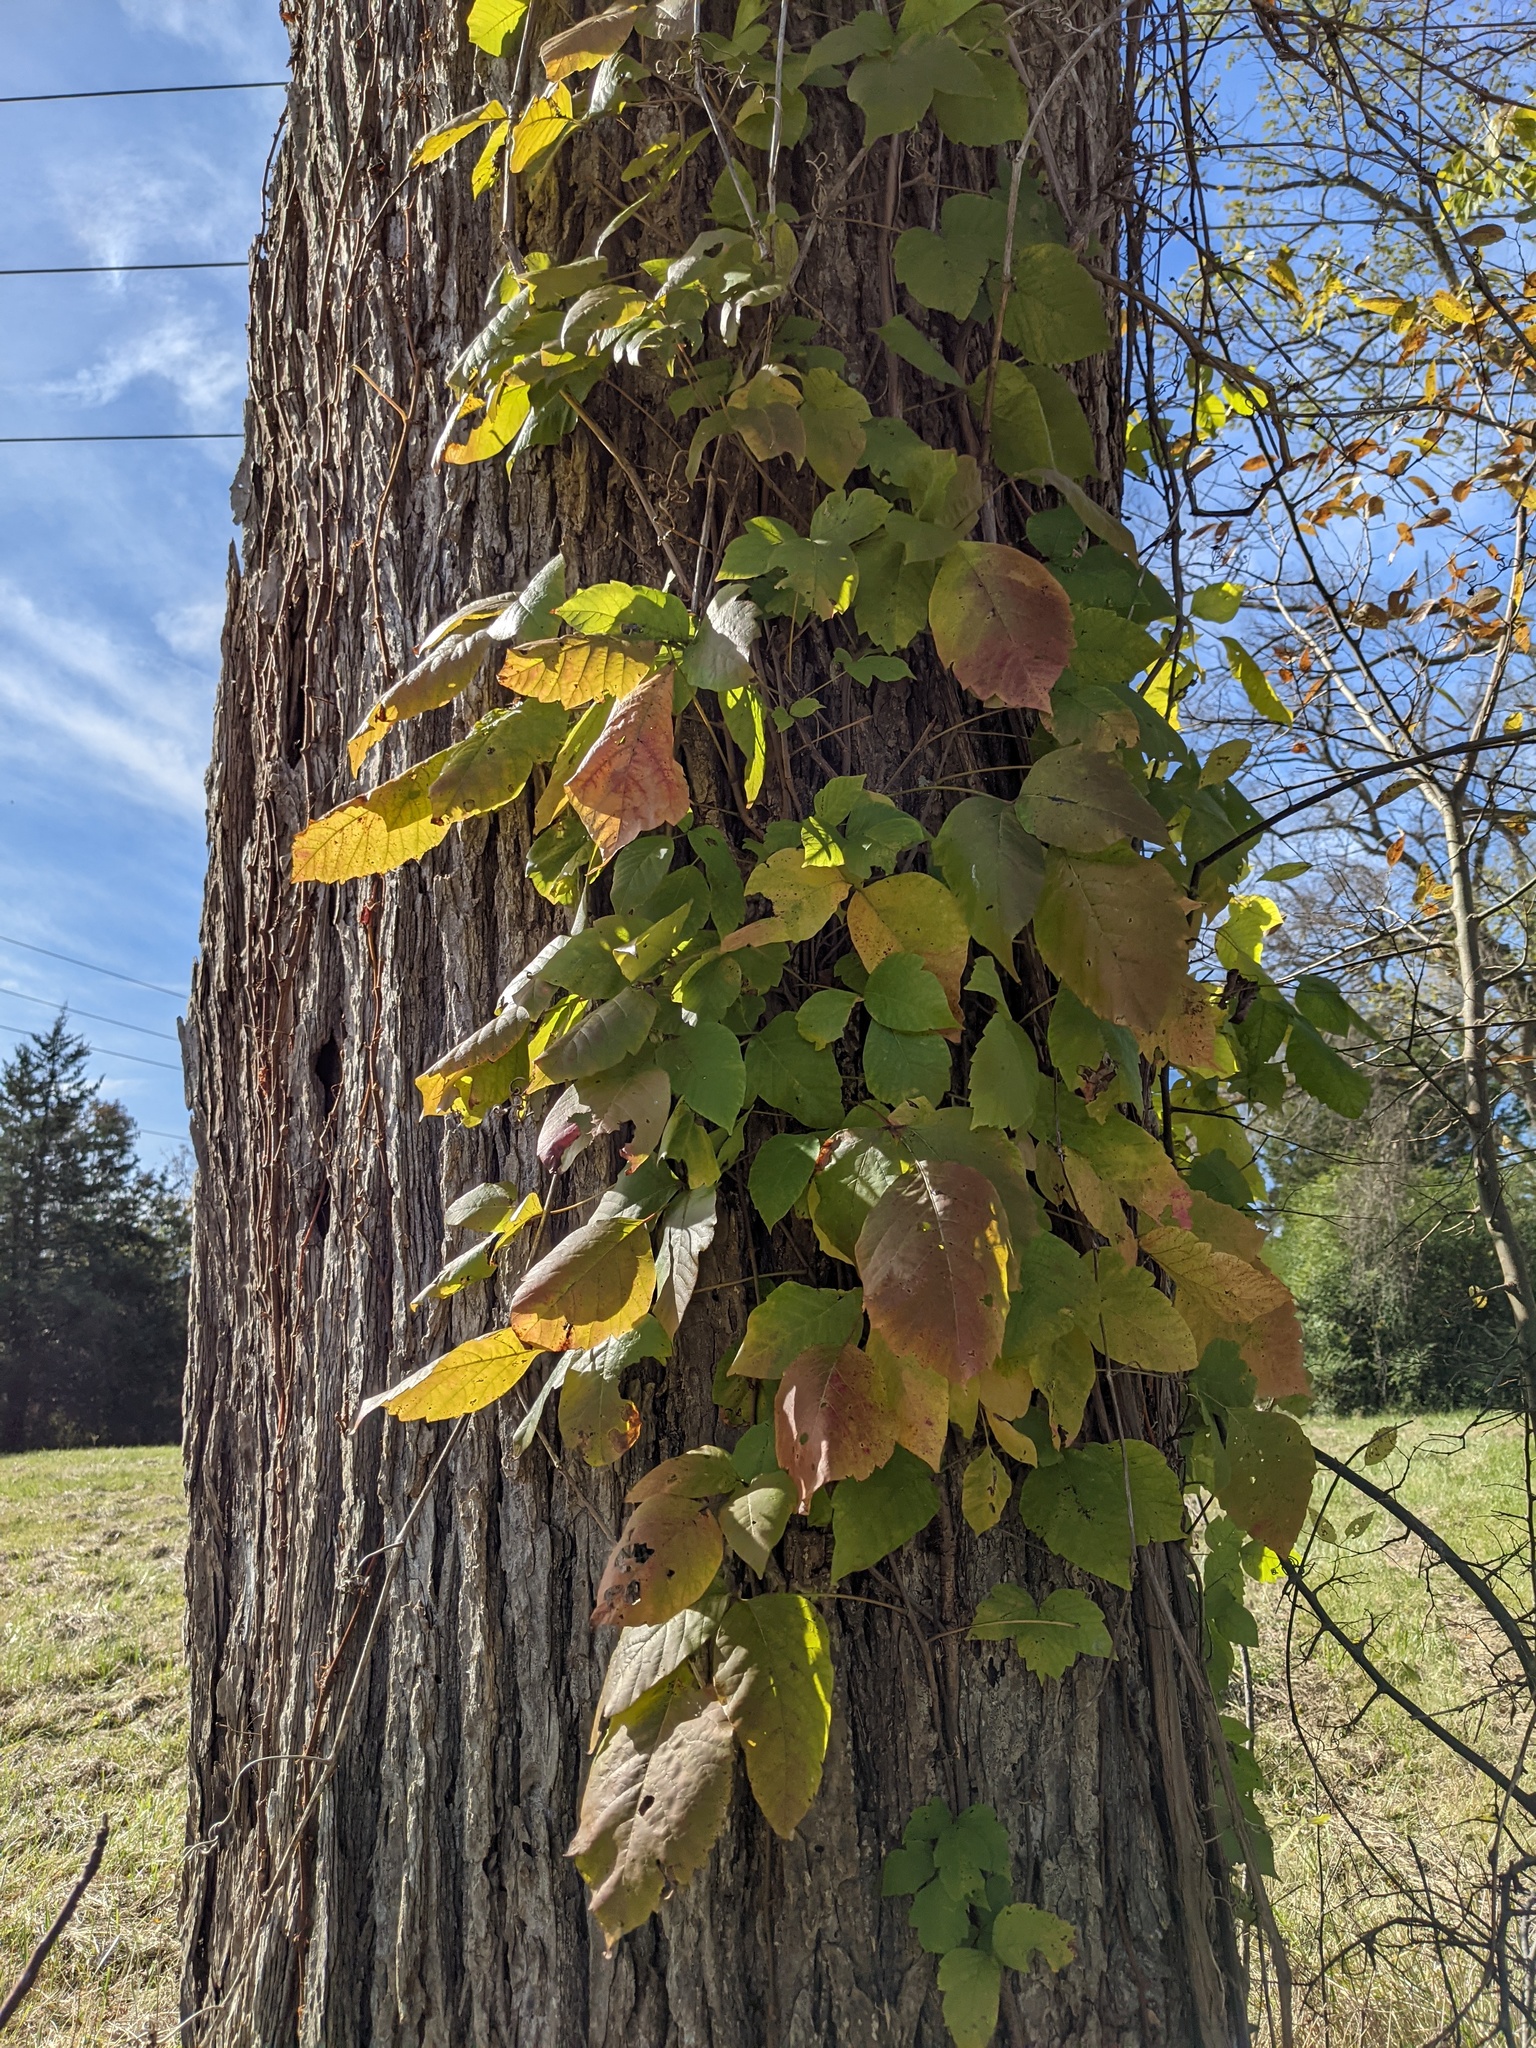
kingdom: Plantae
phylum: Tracheophyta
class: Magnoliopsida
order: Sapindales
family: Anacardiaceae
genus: Toxicodendron
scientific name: Toxicodendron radicans
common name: Poison ivy
